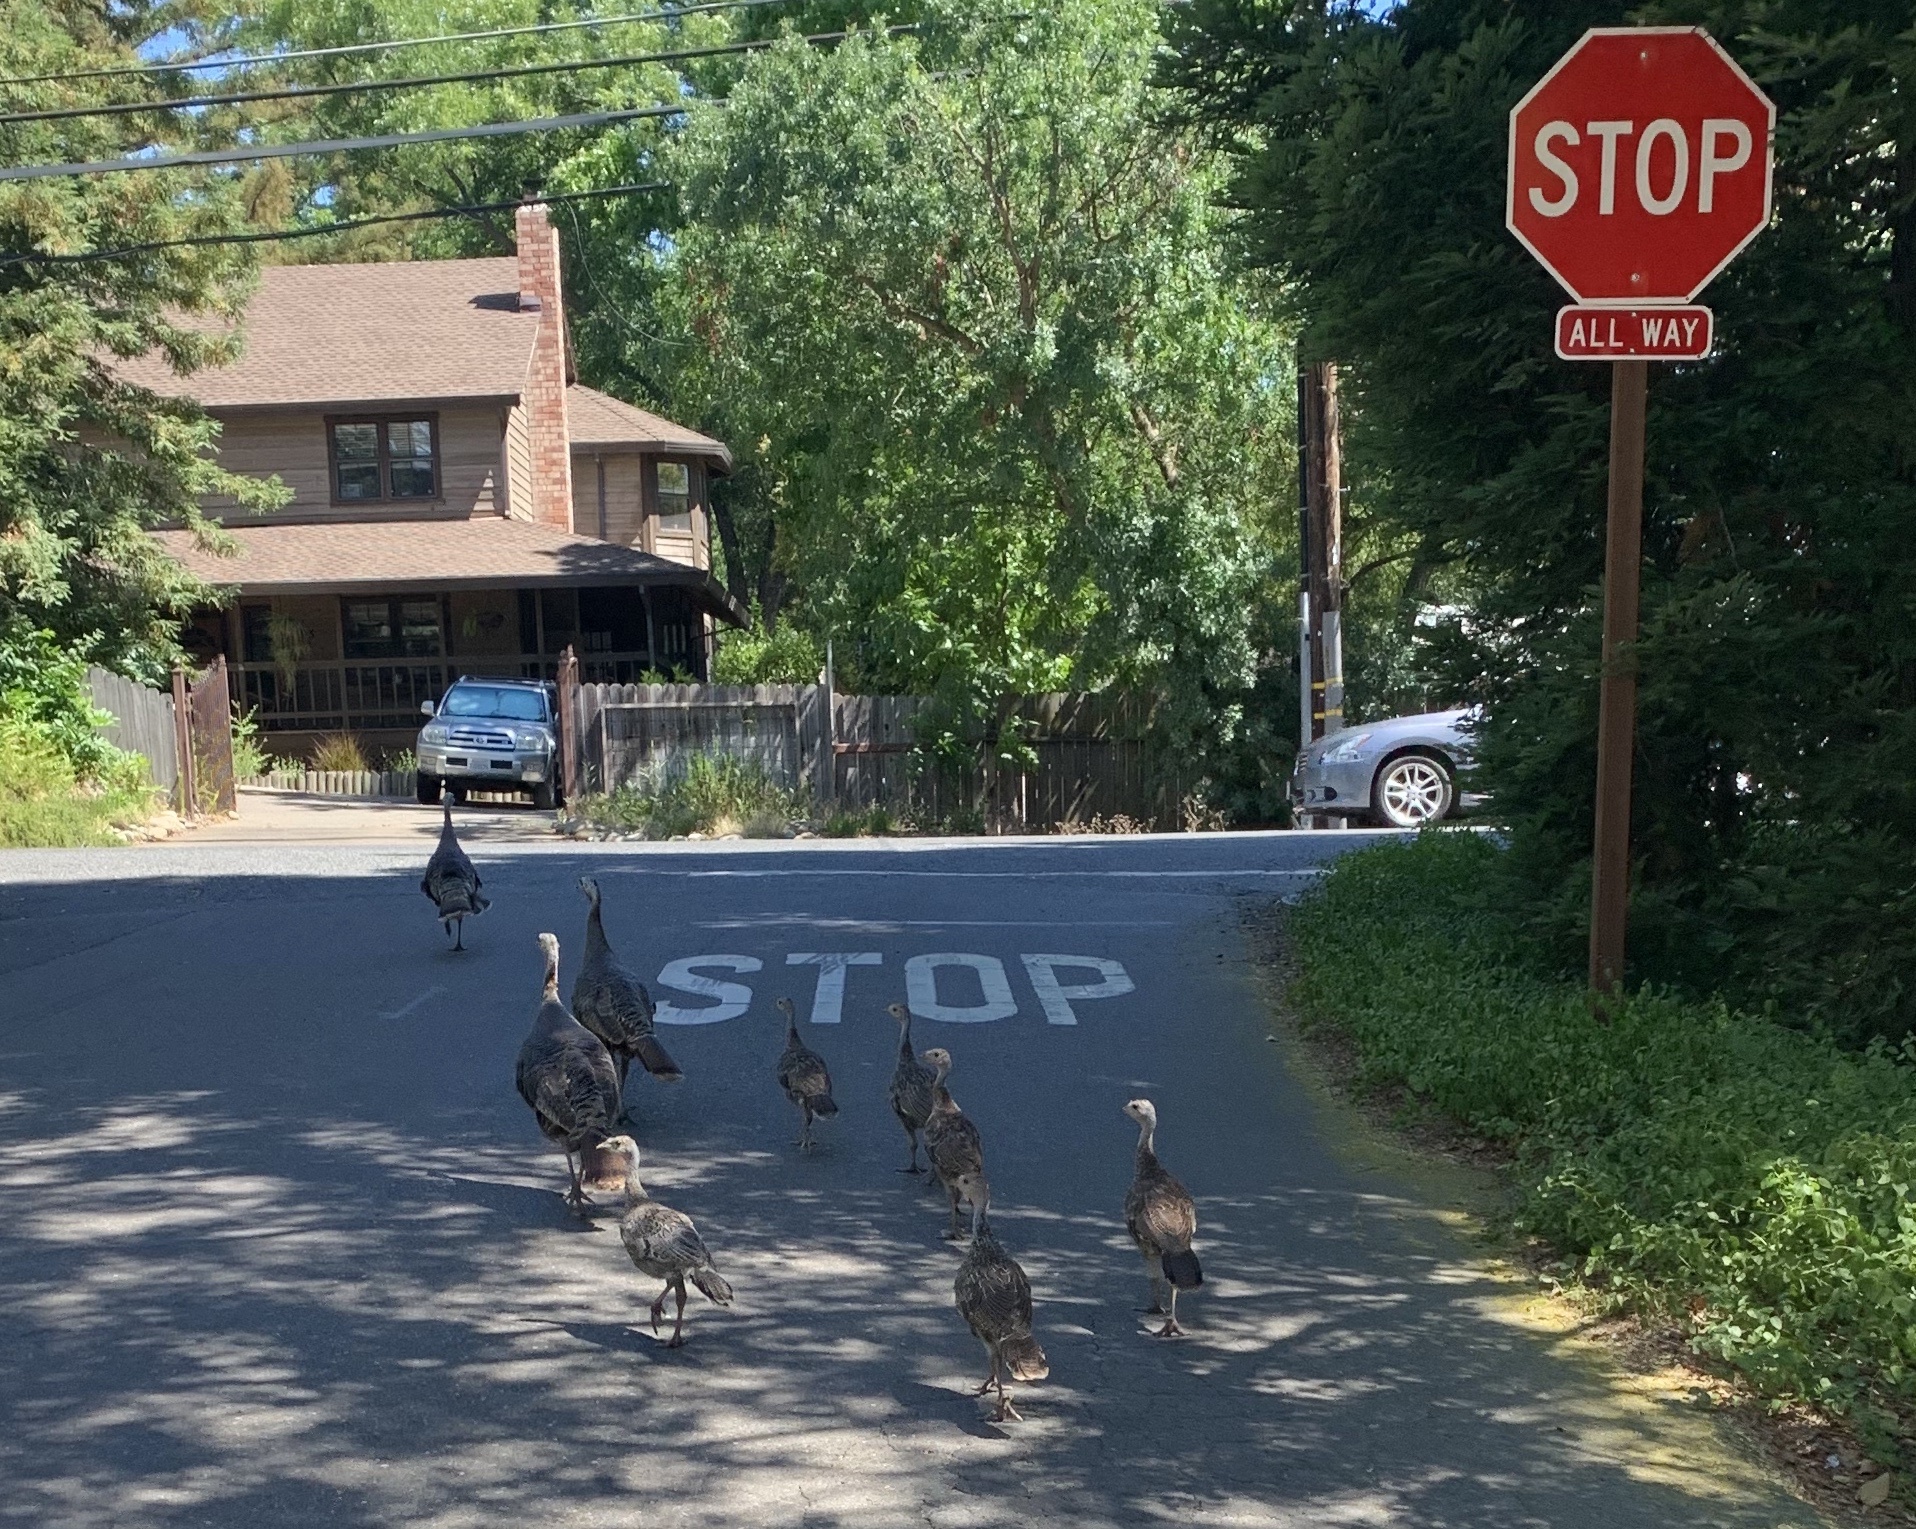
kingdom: Animalia
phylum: Chordata
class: Aves
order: Galliformes
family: Phasianidae
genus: Meleagris
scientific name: Meleagris gallopavo
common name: Wild turkey
